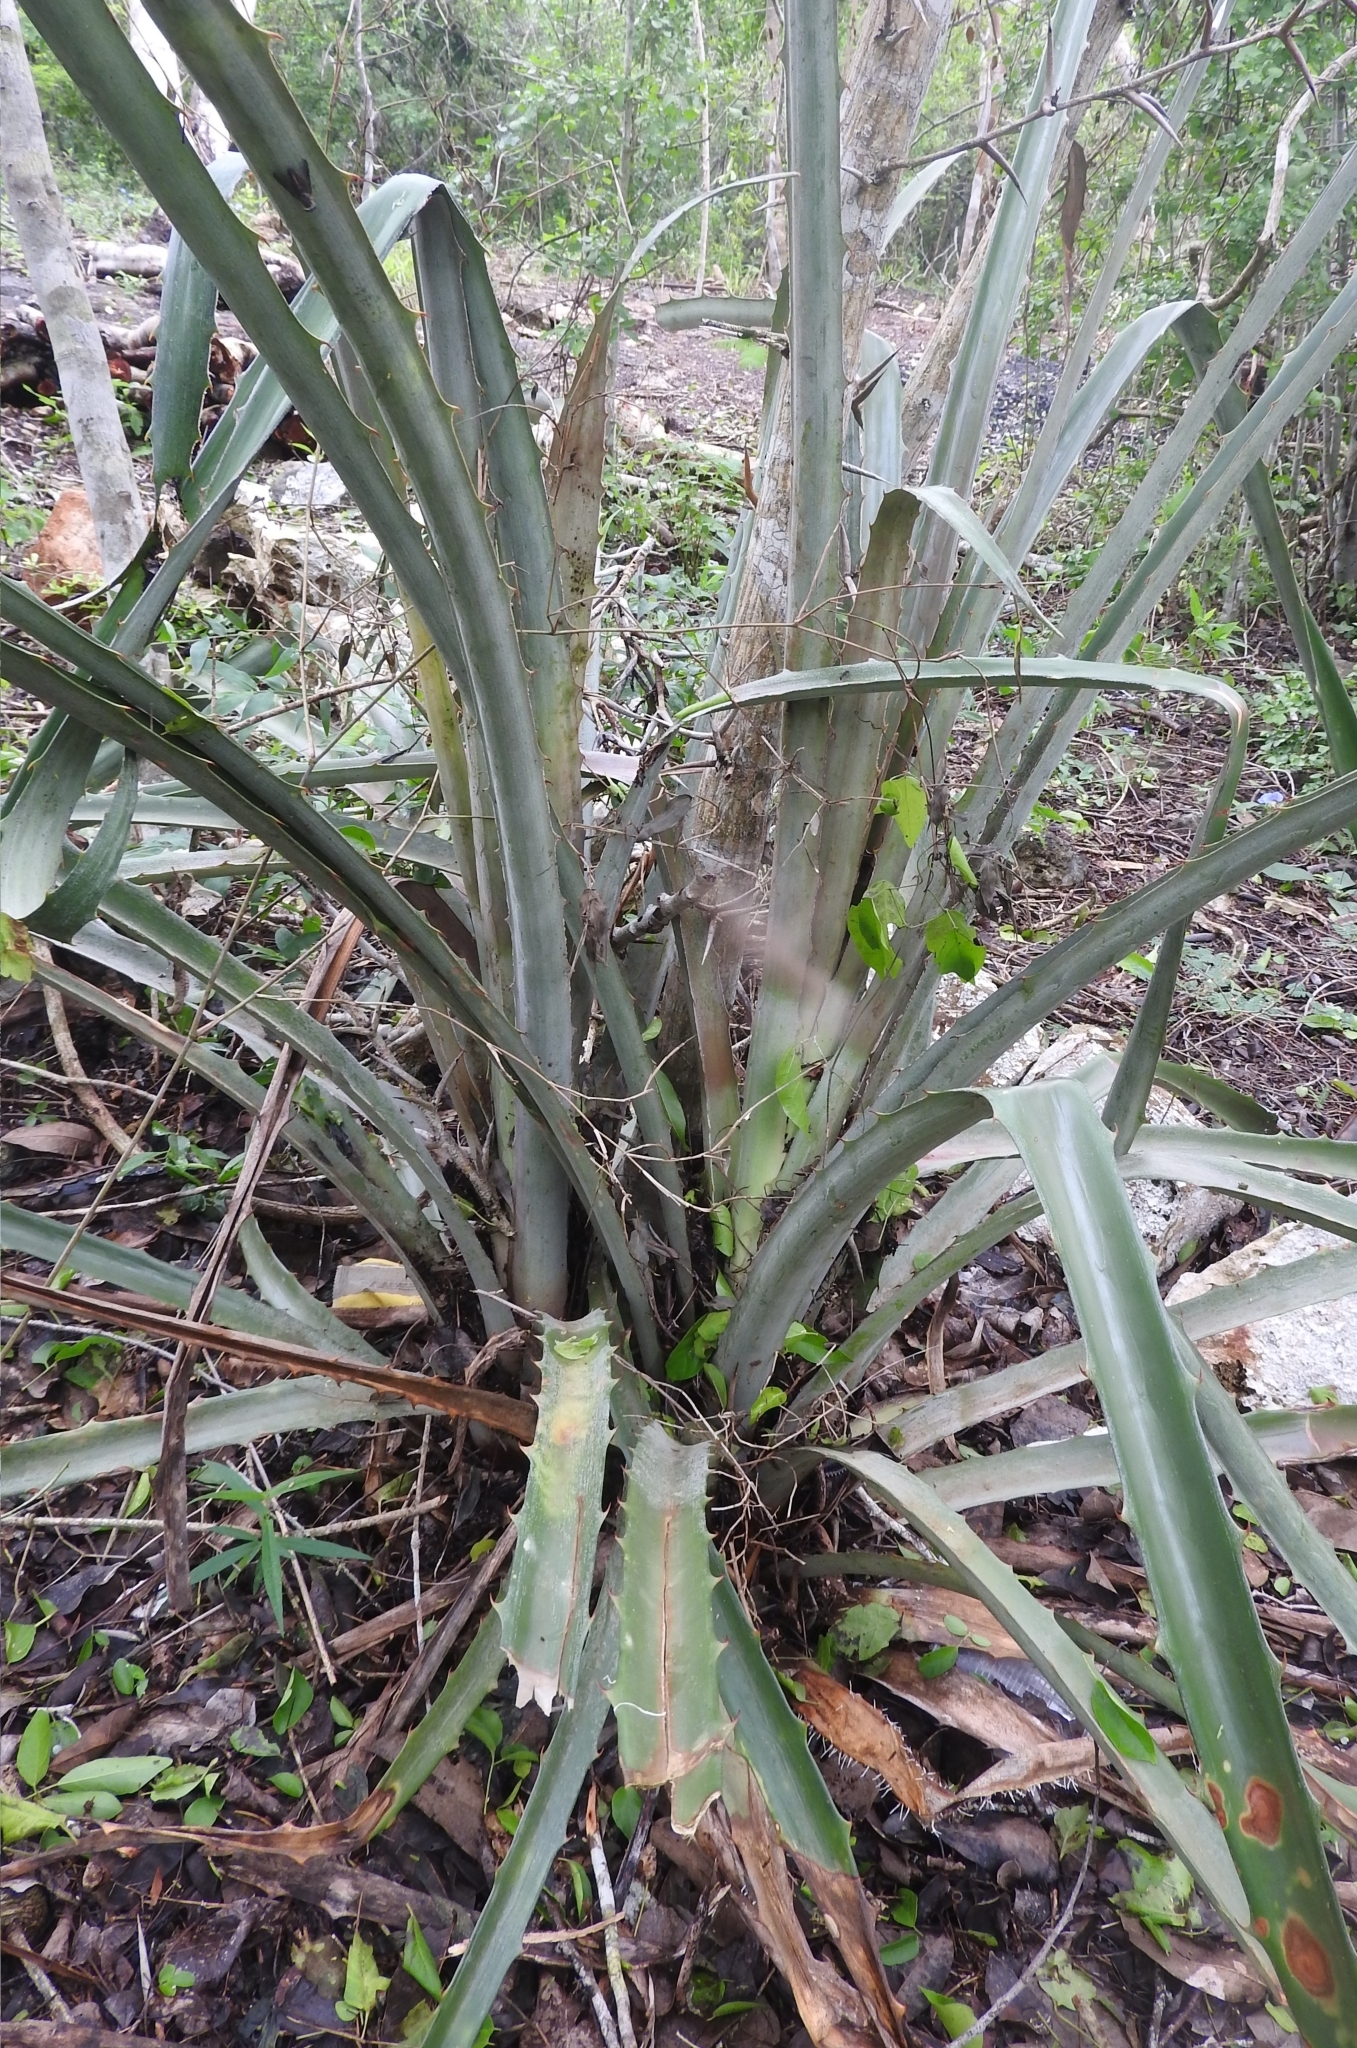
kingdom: Plantae
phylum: Tracheophyta
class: Liliopsida
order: Poales
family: Bromeliaceae
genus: Bromelia
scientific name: Bromelia karatas
